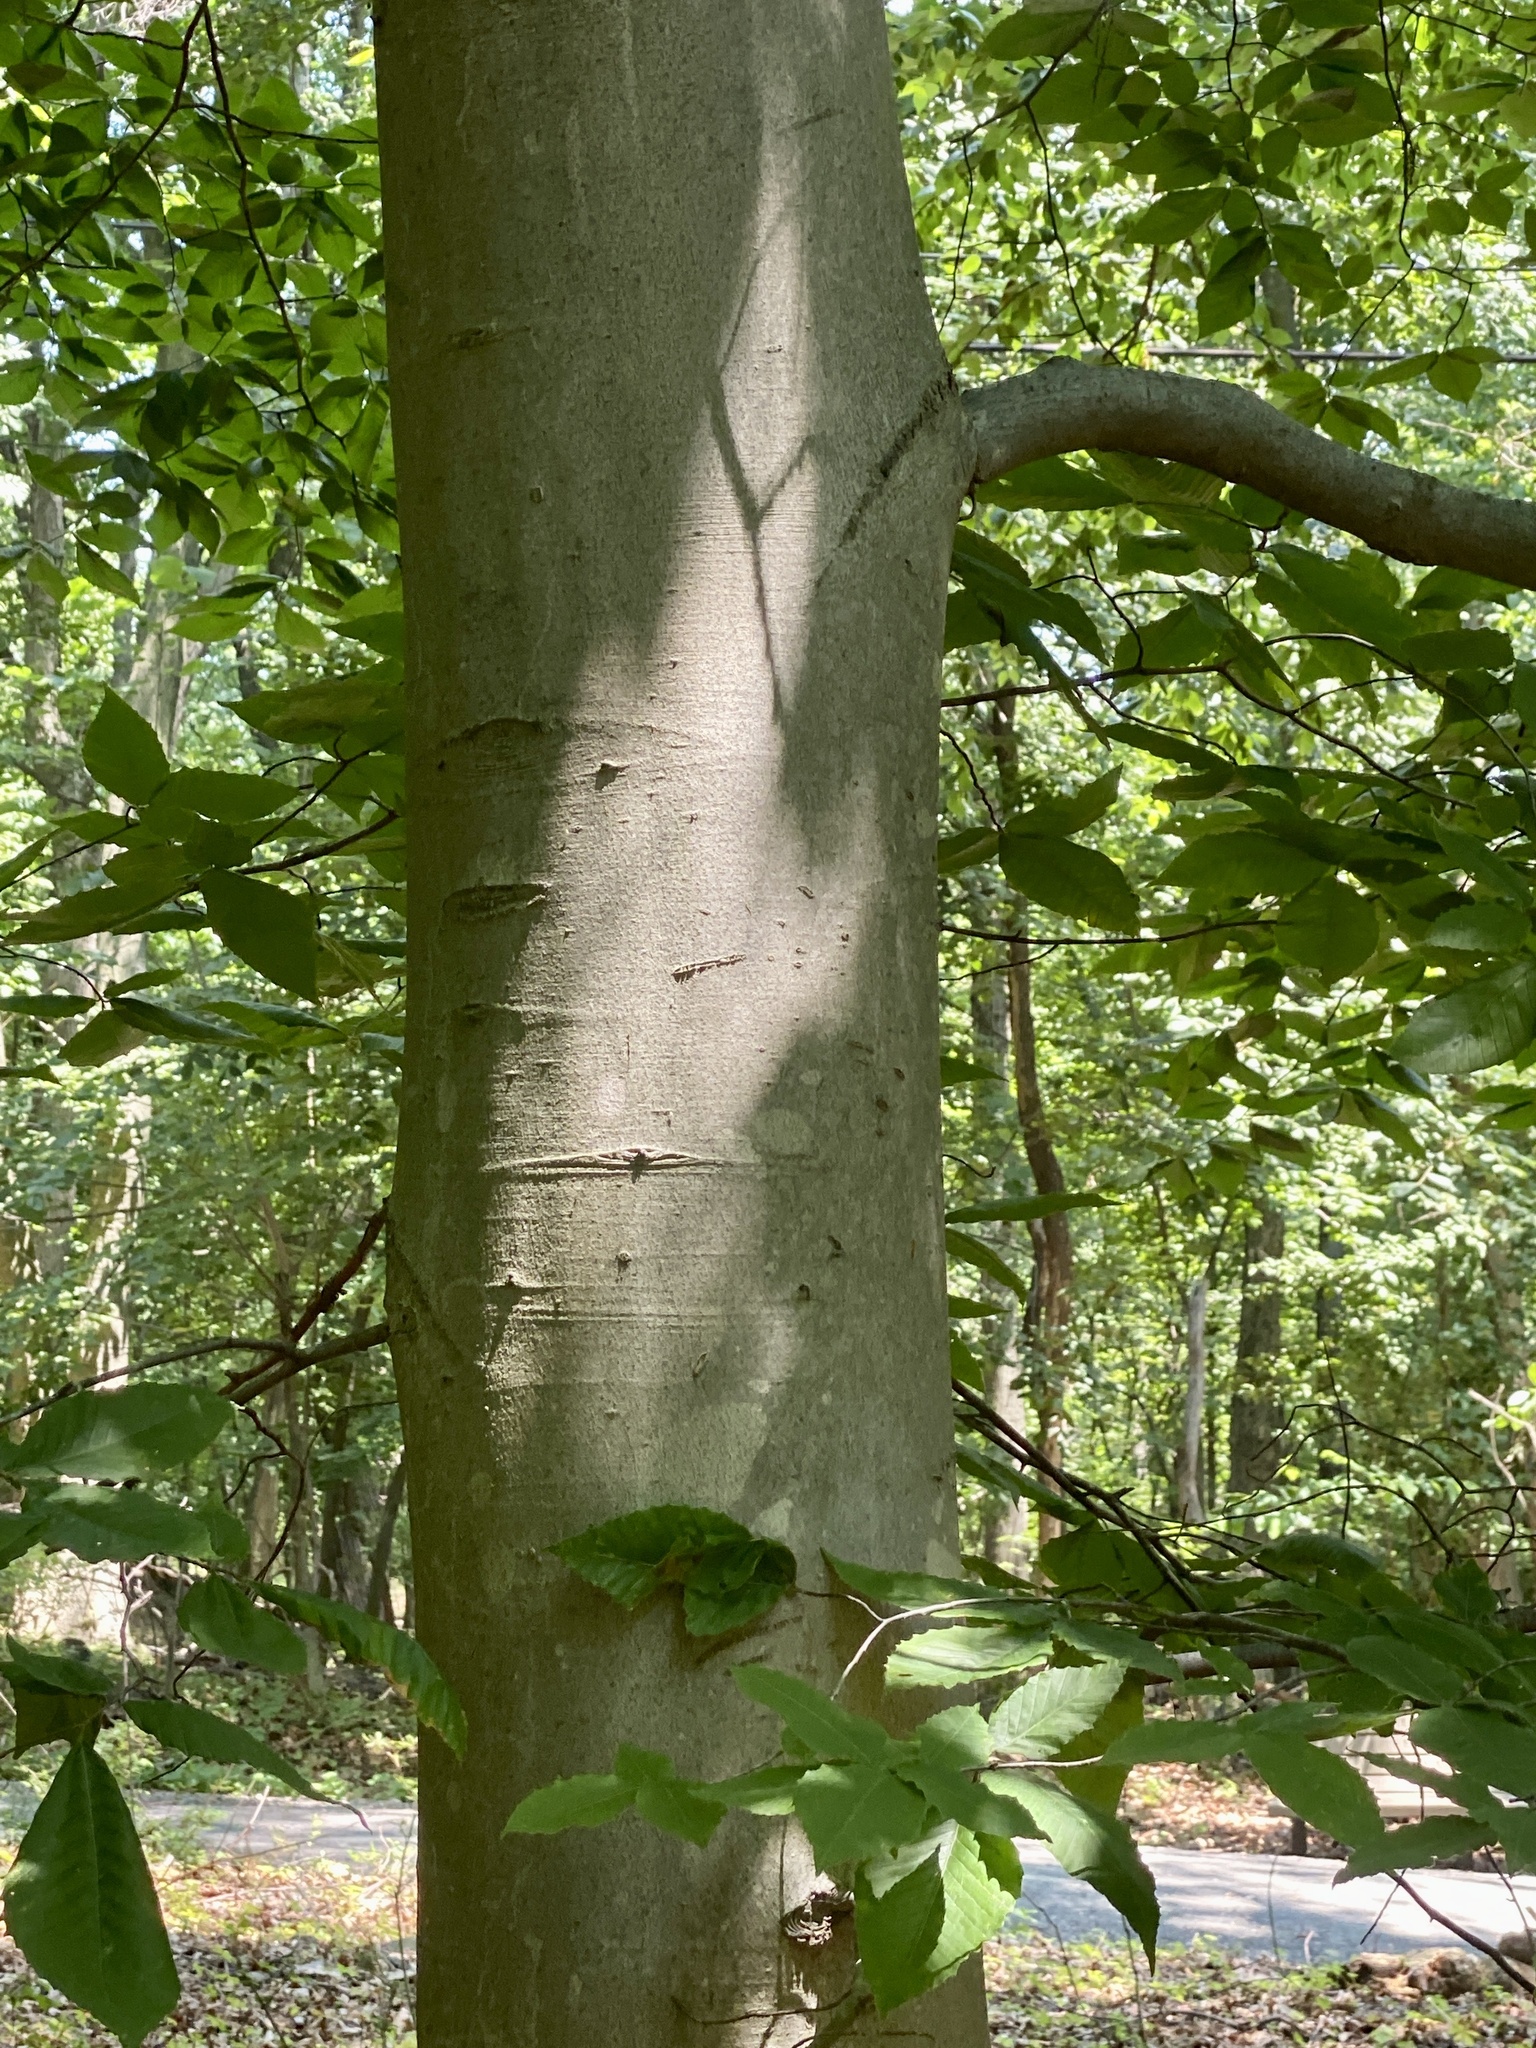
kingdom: Plantae
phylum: Tracheophyta
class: Magnoliopsida
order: Fagales
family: Fagaceae
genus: Fagus
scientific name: Fagus grandifolia
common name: American beech
